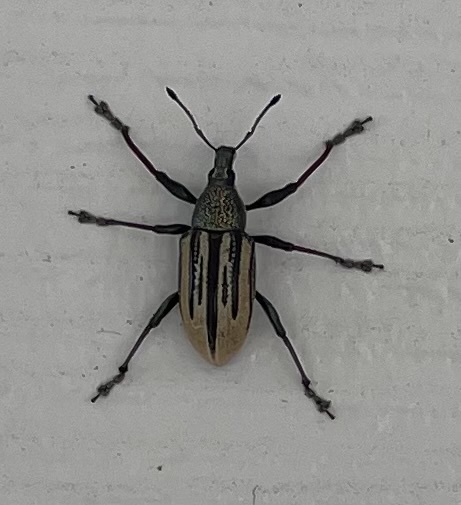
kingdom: Animalia
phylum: Arthropoda
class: Insecta
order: Coleoptera
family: Curculionidae
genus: Diaprepes
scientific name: Diaprepes abbreviatus
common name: Root weevil
